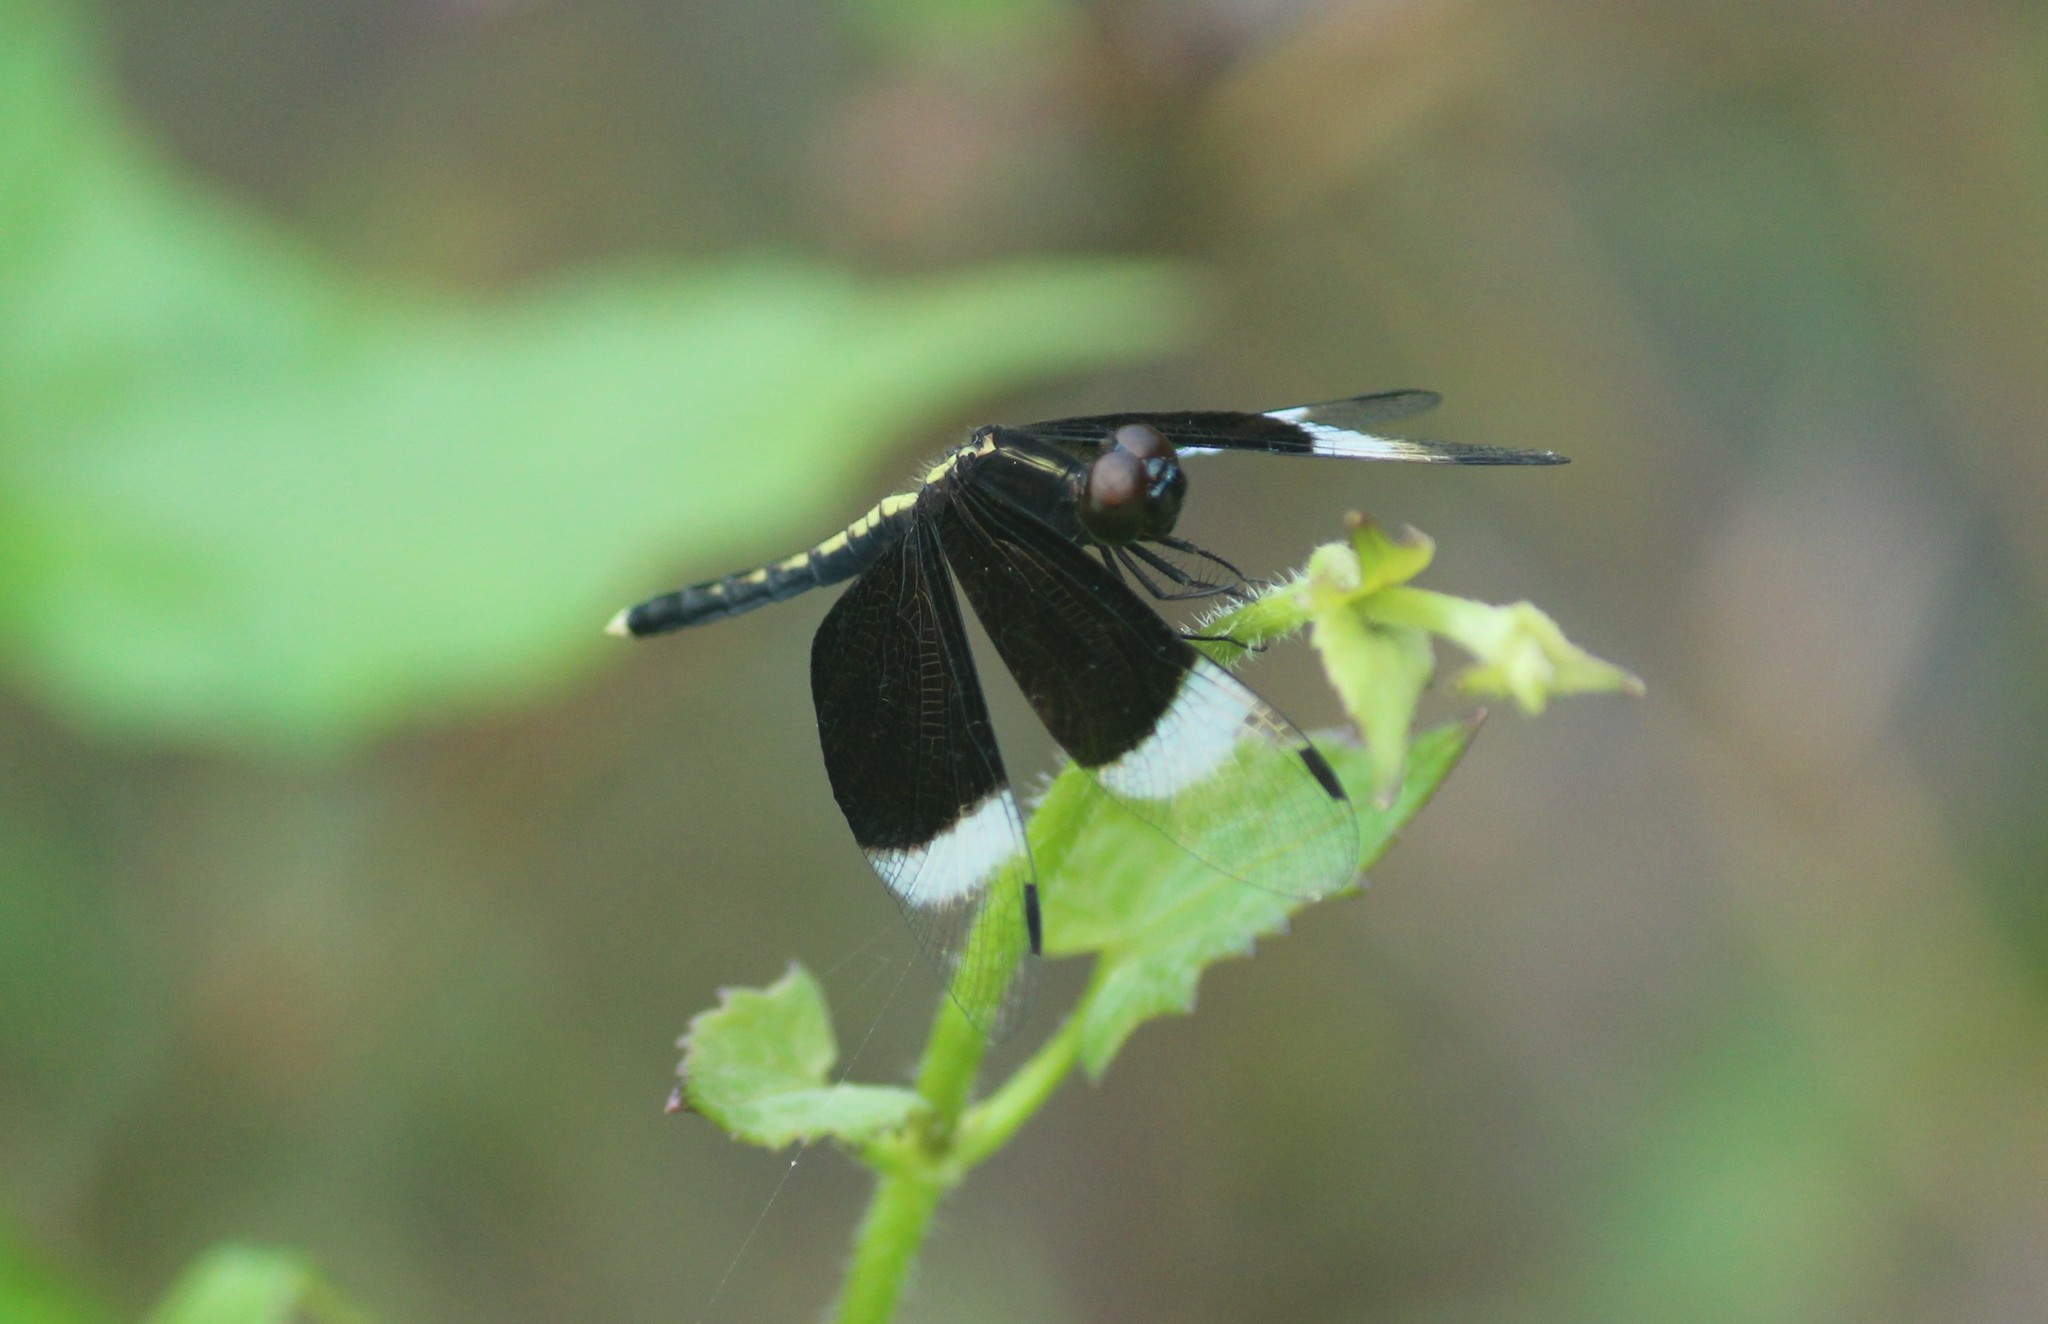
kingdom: Animalia
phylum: Arthropoda
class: Insecta
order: Odonata
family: Libellulidae
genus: Neurothemis
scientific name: Neurothemis tullia
